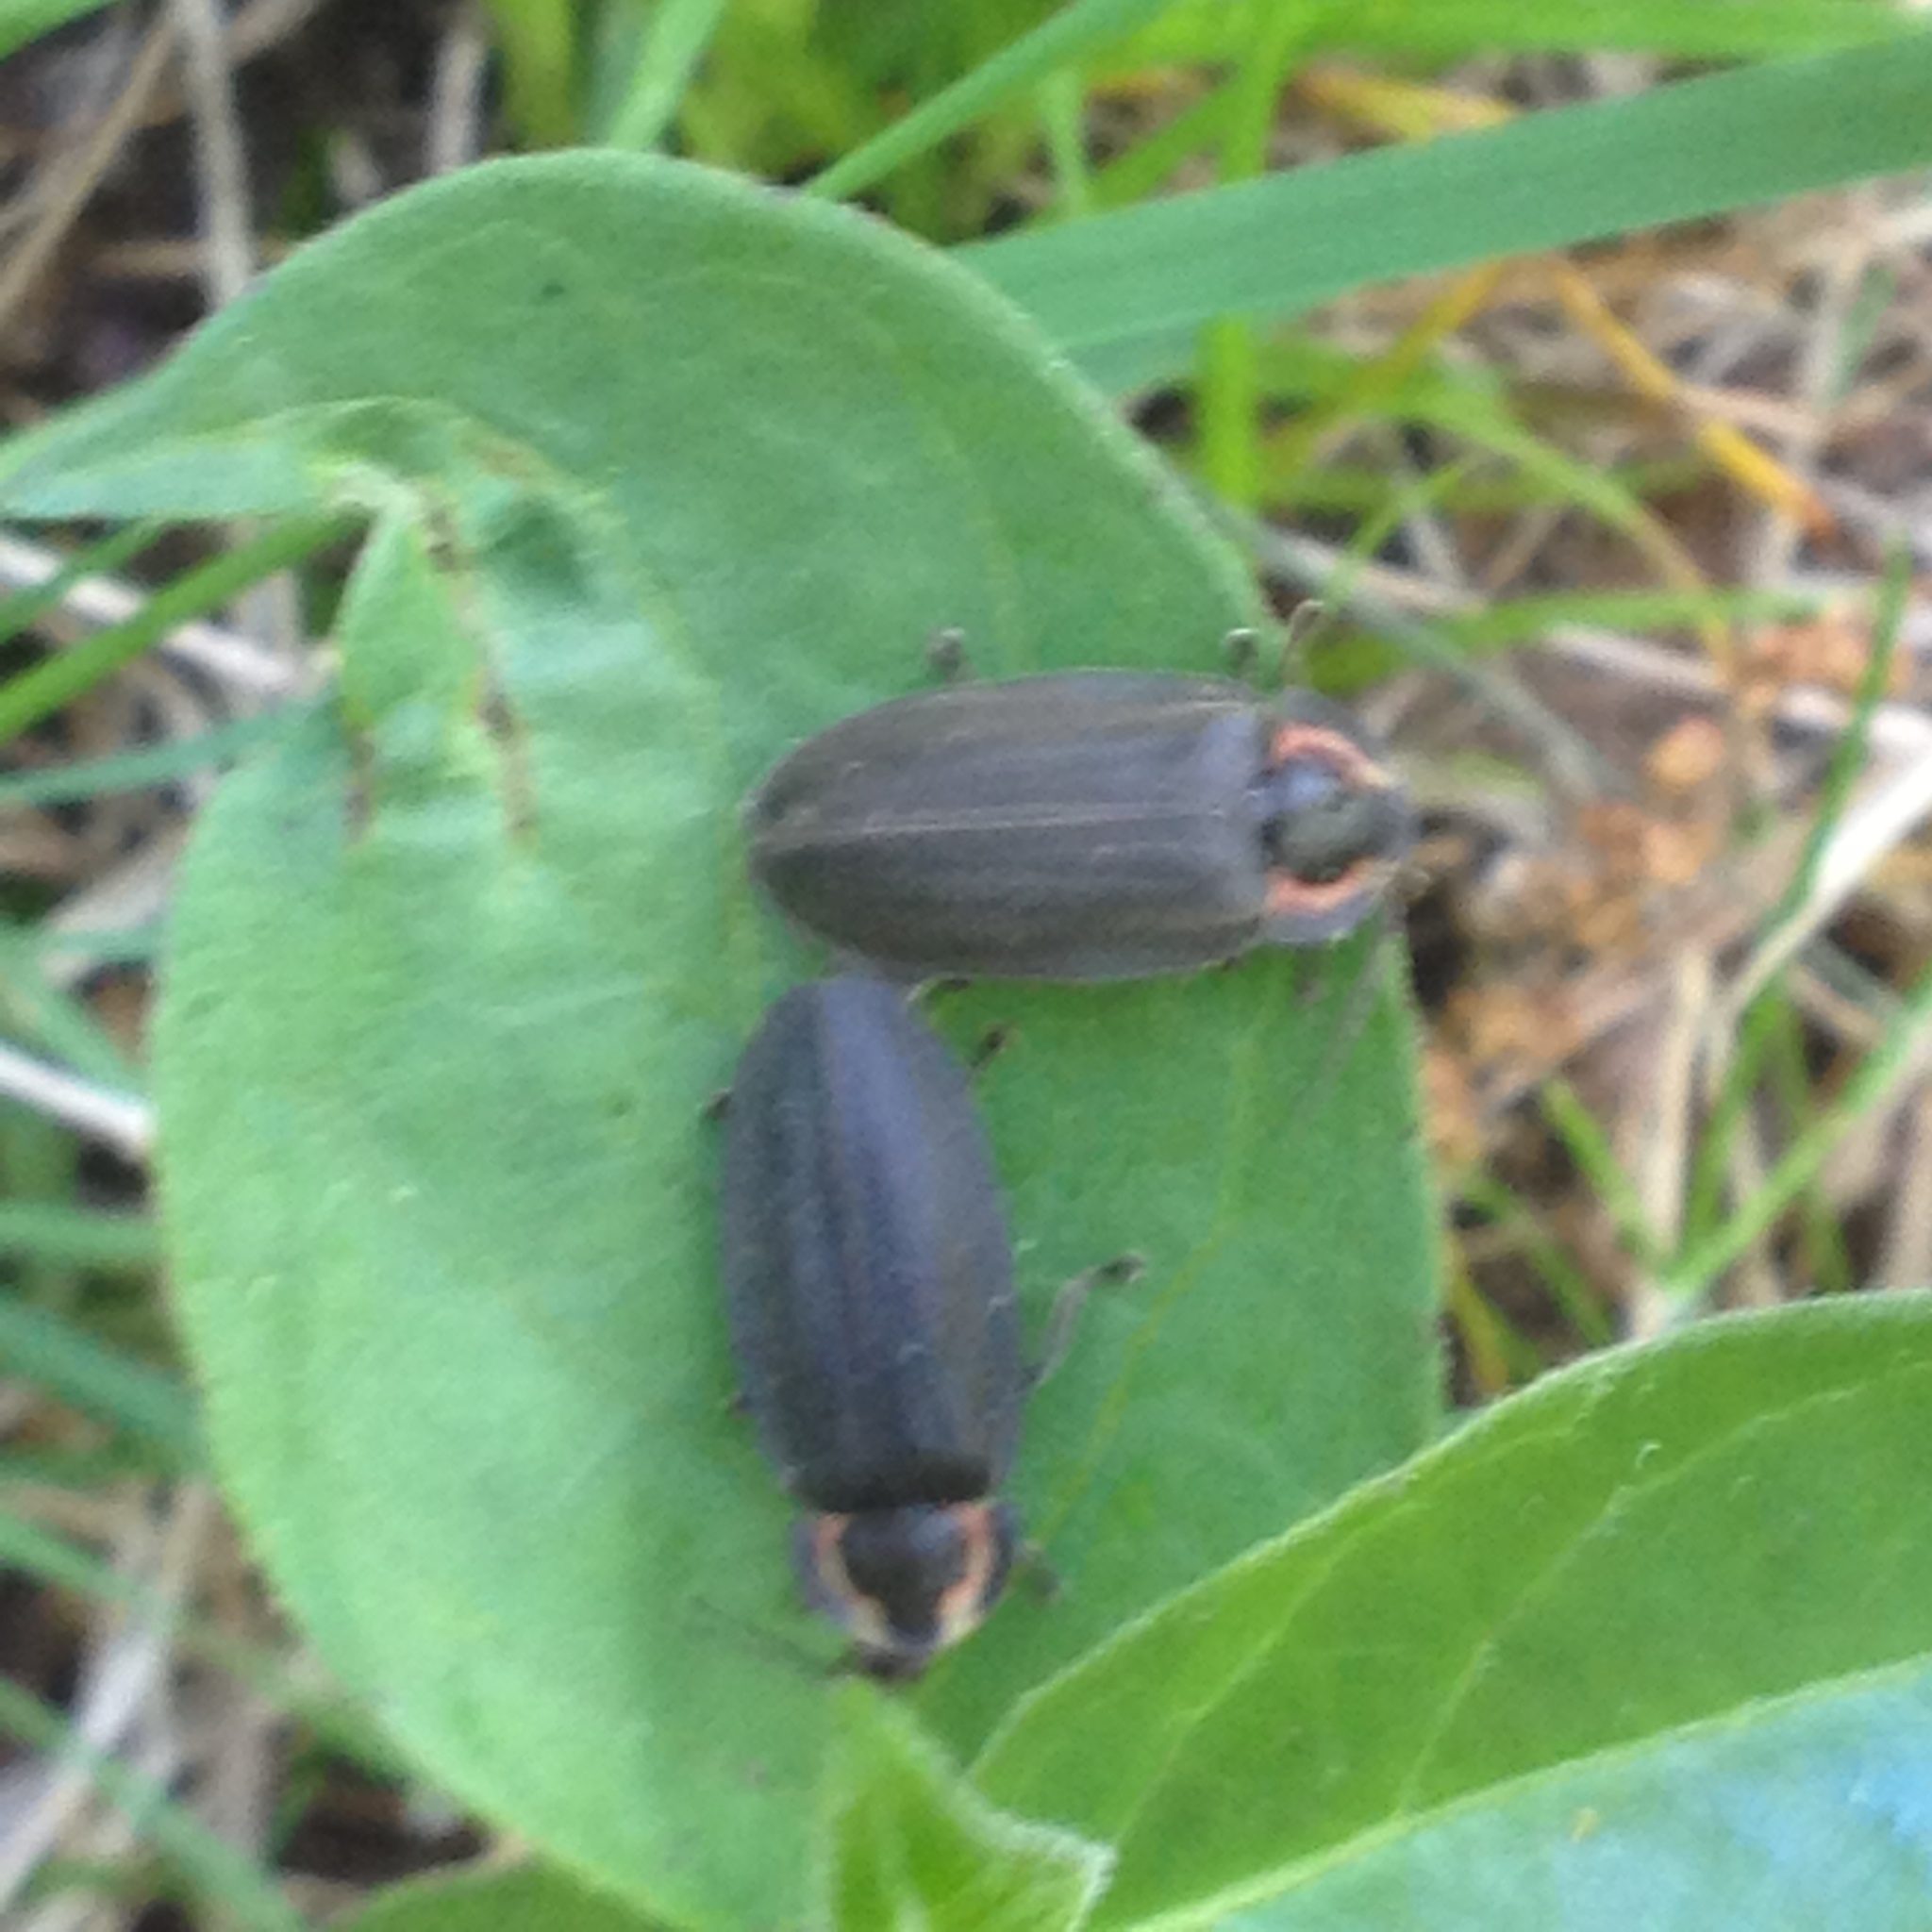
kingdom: Animalia
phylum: Arthropoda
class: Insecta
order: Coleoptera
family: Lampyridae
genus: Photinus
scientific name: Photinus corrusca
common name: Winter firefly
